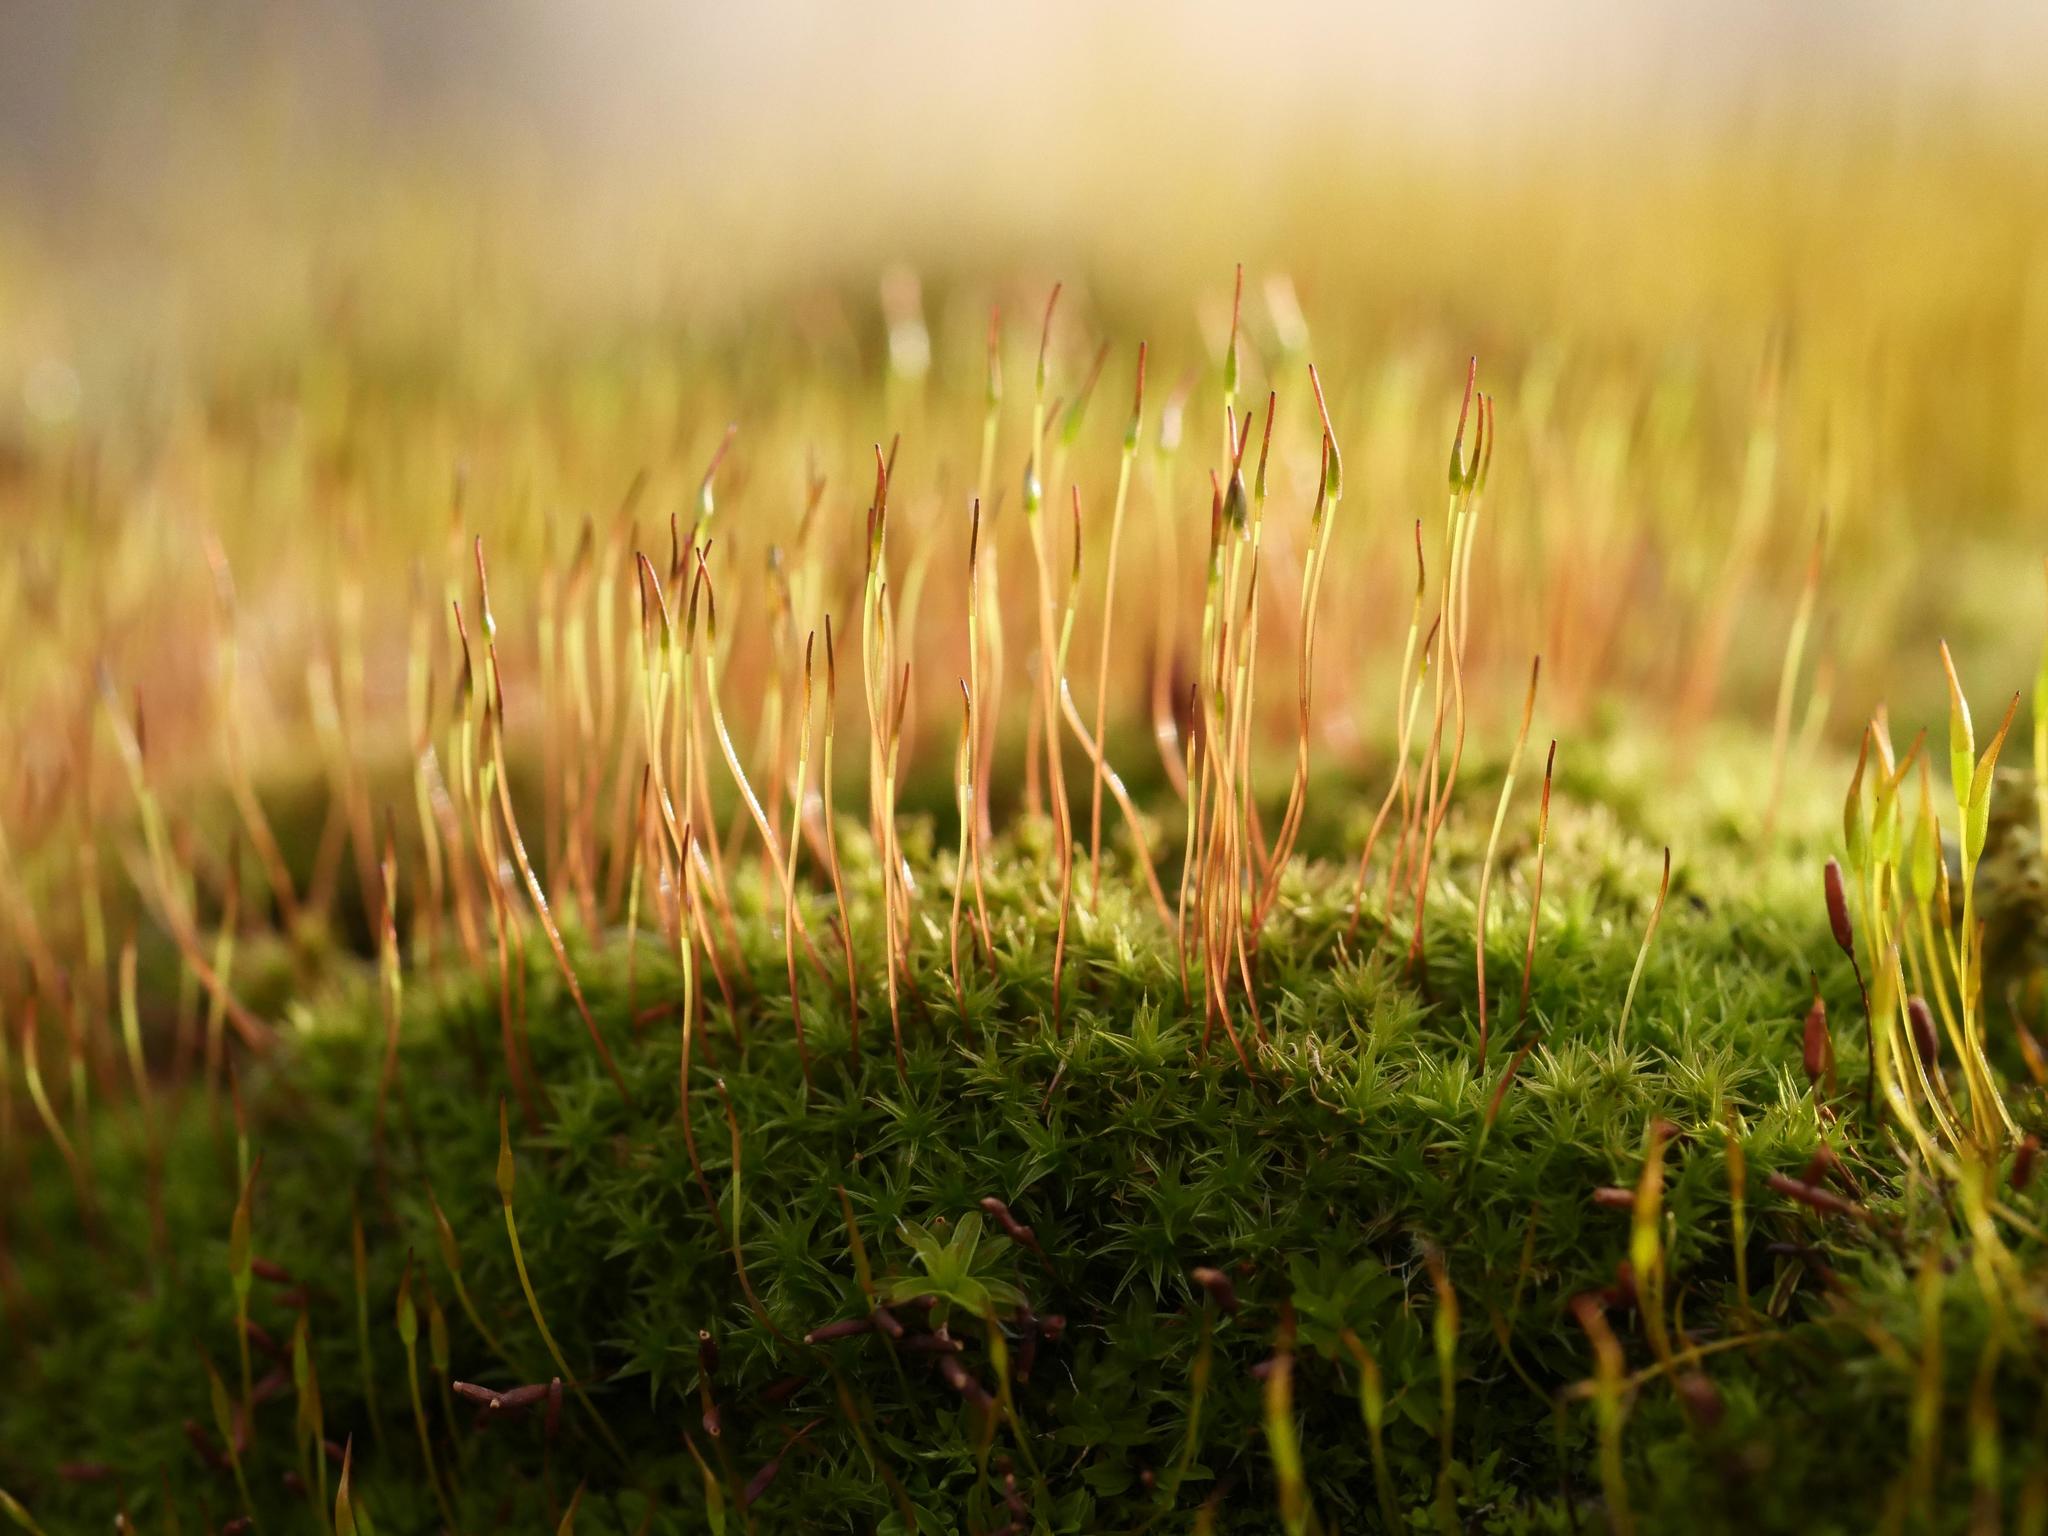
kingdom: Plantae
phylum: Bryophyta
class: Bryopsida
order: Dicranales
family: Ditrichaceae
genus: Ceratodon
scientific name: Ceratodon purpureus
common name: Redshank
